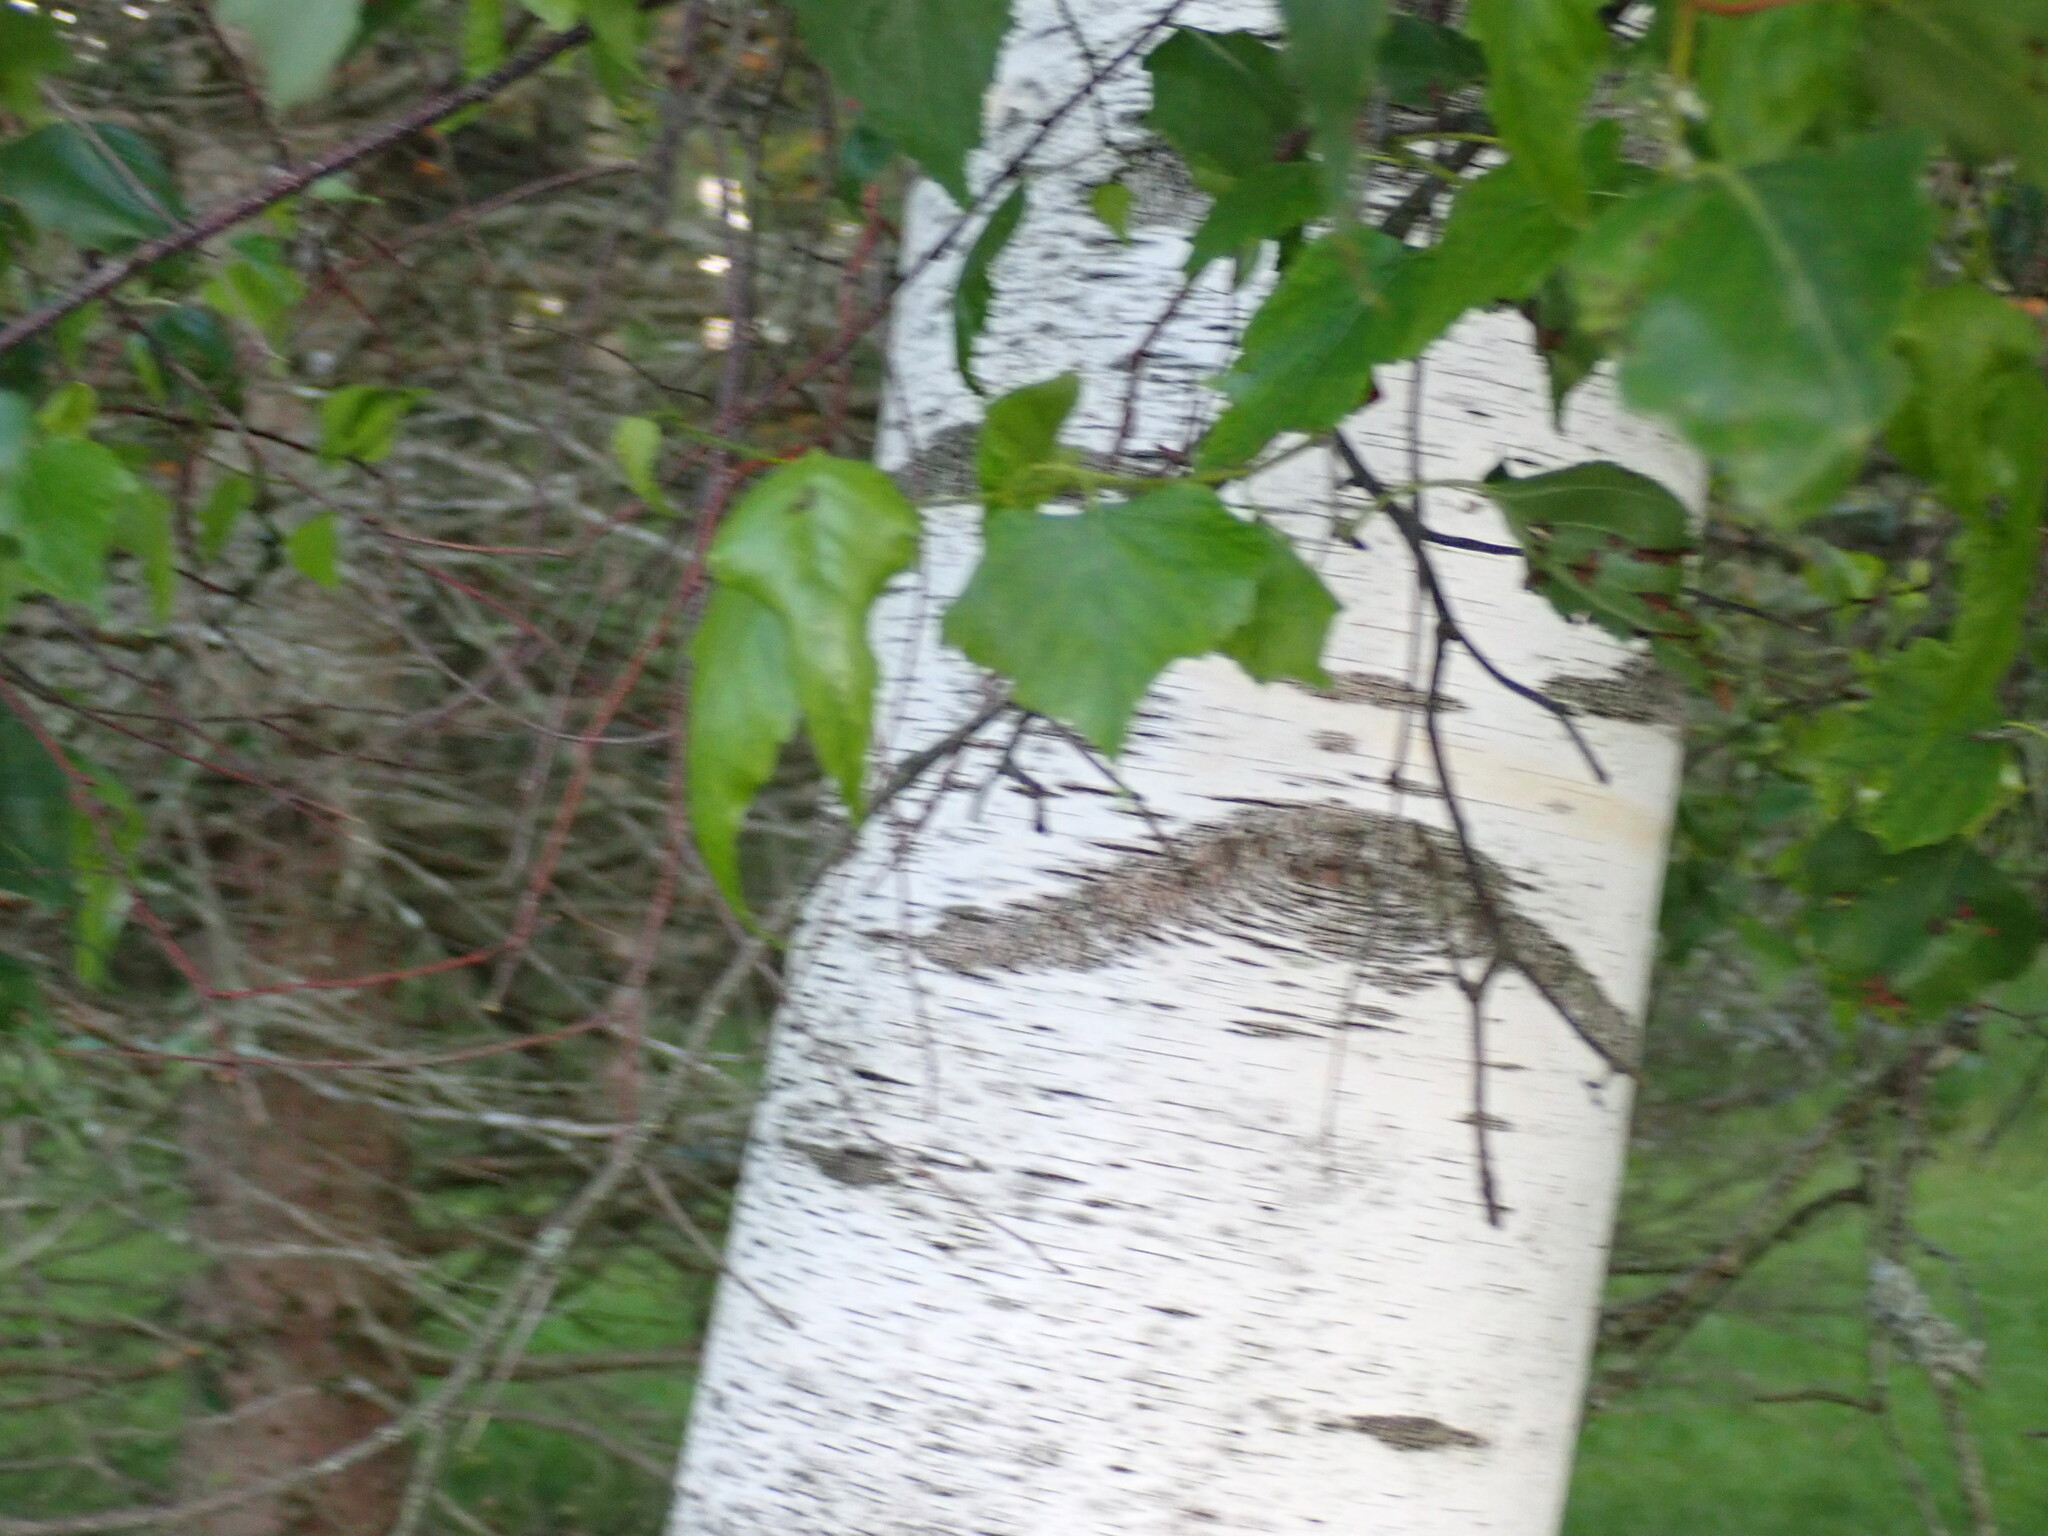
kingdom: Animalia
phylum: Arthropoda
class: Insecta
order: Hymenoptera
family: Tenthredinidae
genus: Profenusa
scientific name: Profenusa thomsoni
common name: Amber-marked birch leafminer
